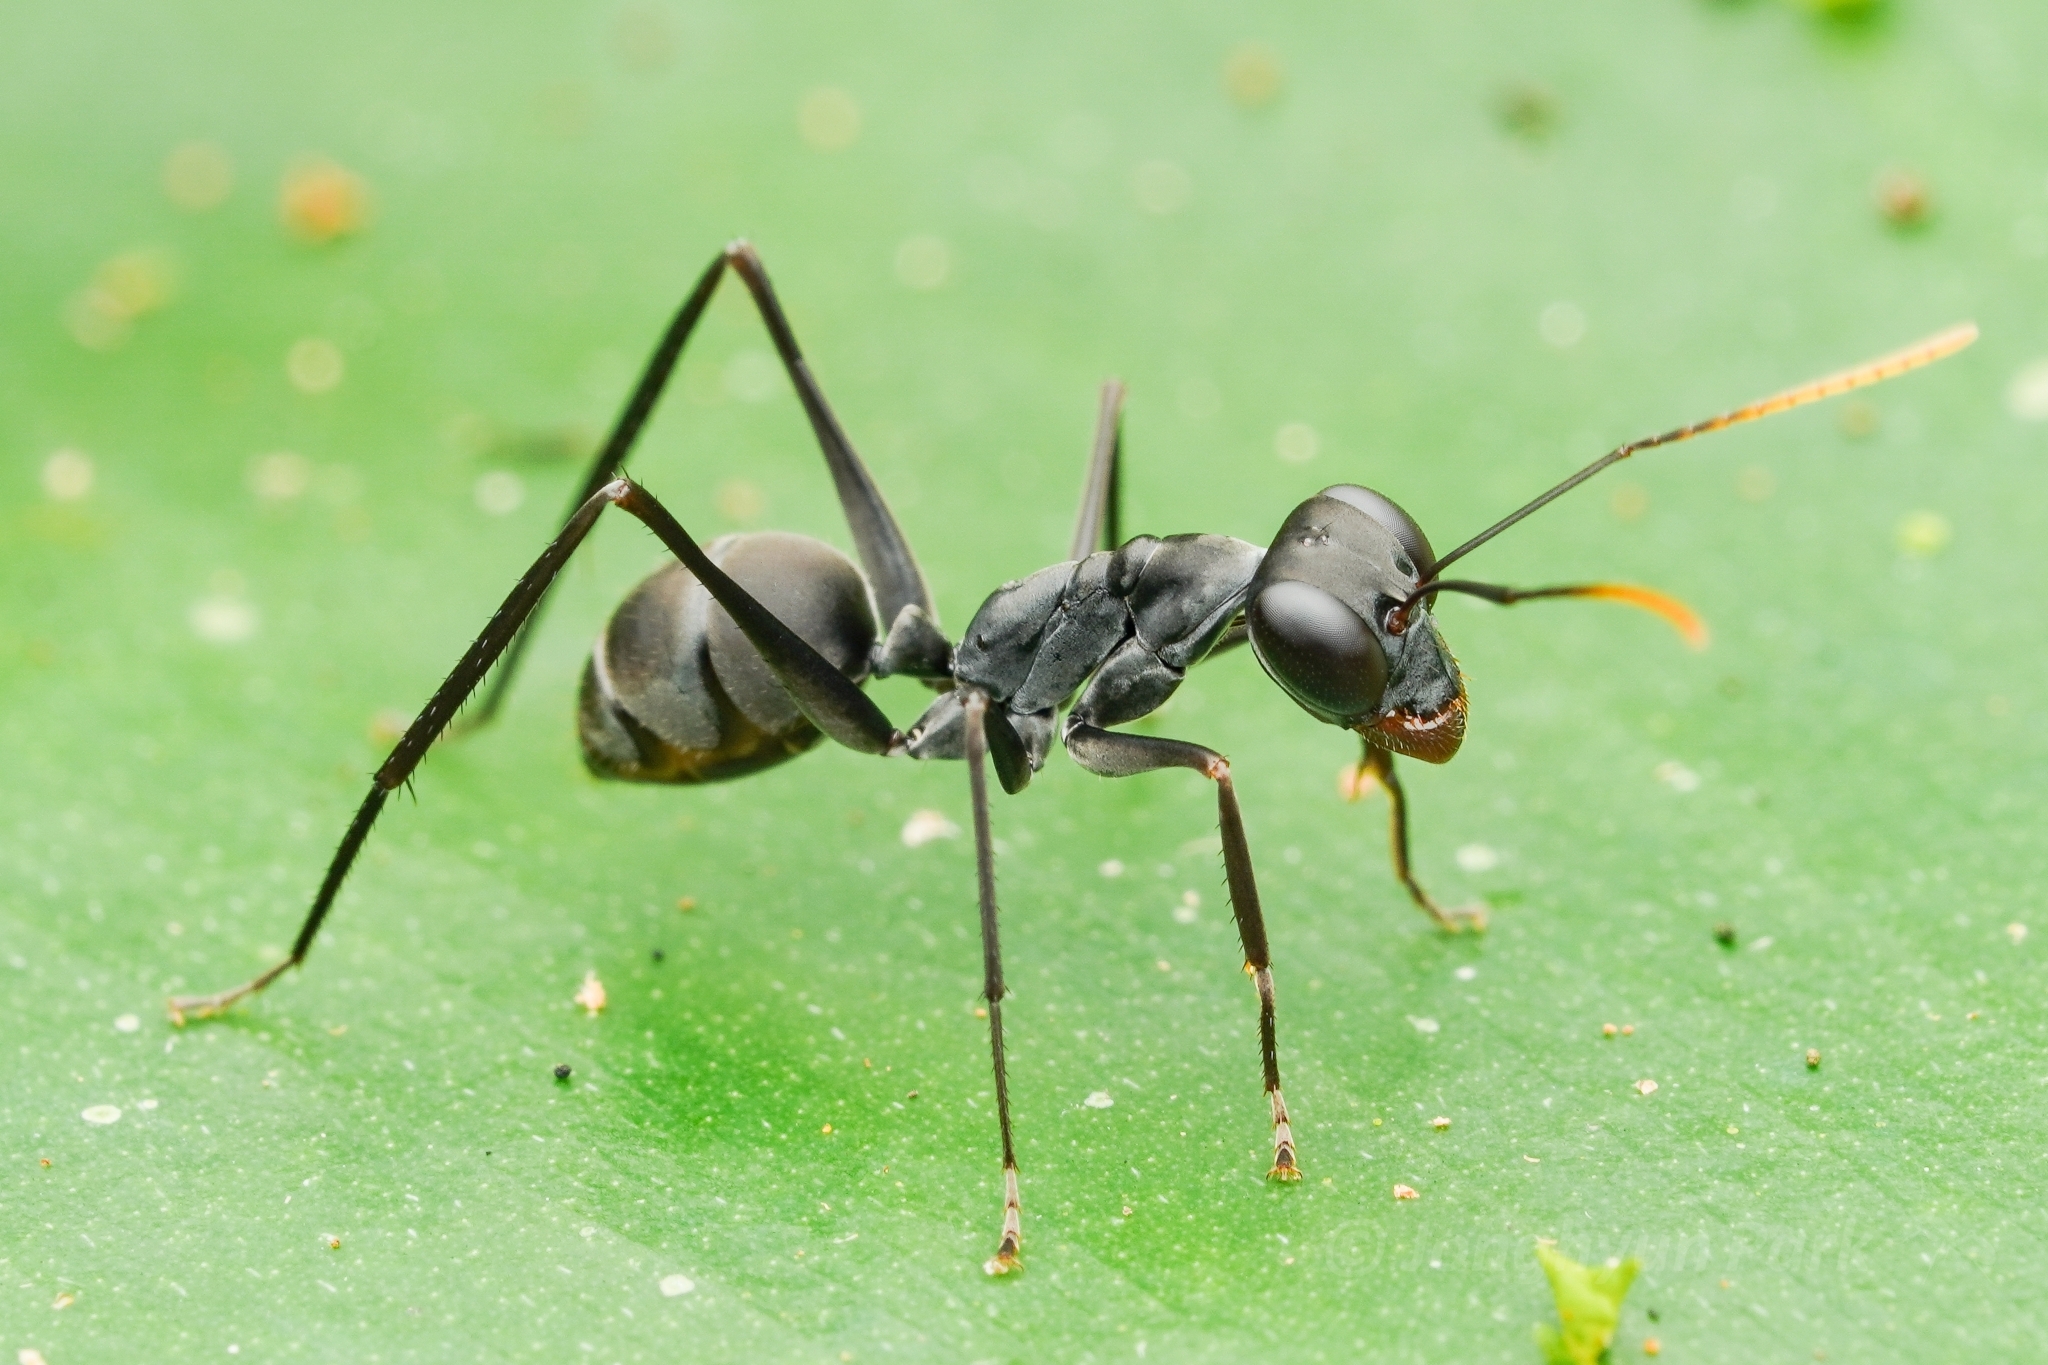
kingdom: Animalia
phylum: Arthropoda
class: Insecta
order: Hymenoptera
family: Formicidae
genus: Gigantiops
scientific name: Gigantiops destructor
